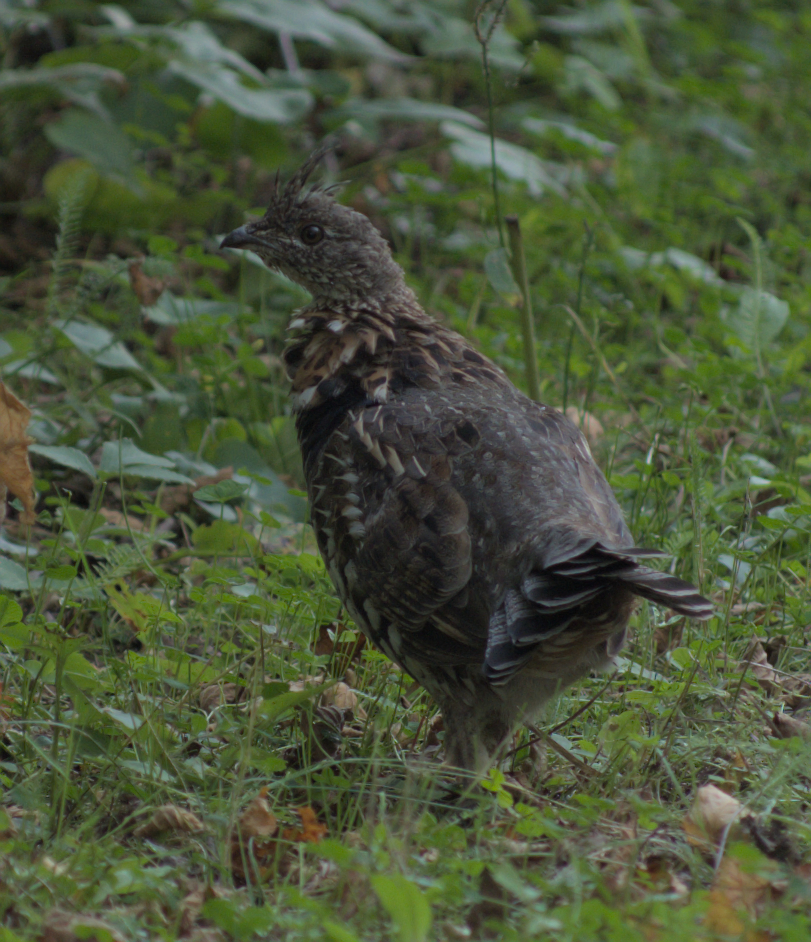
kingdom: Animalia
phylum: Chordata
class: Aves
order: Galliformes
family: Phasianidae
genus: Bonasa
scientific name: Bonasa umbellus
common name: Ruffed grouse
